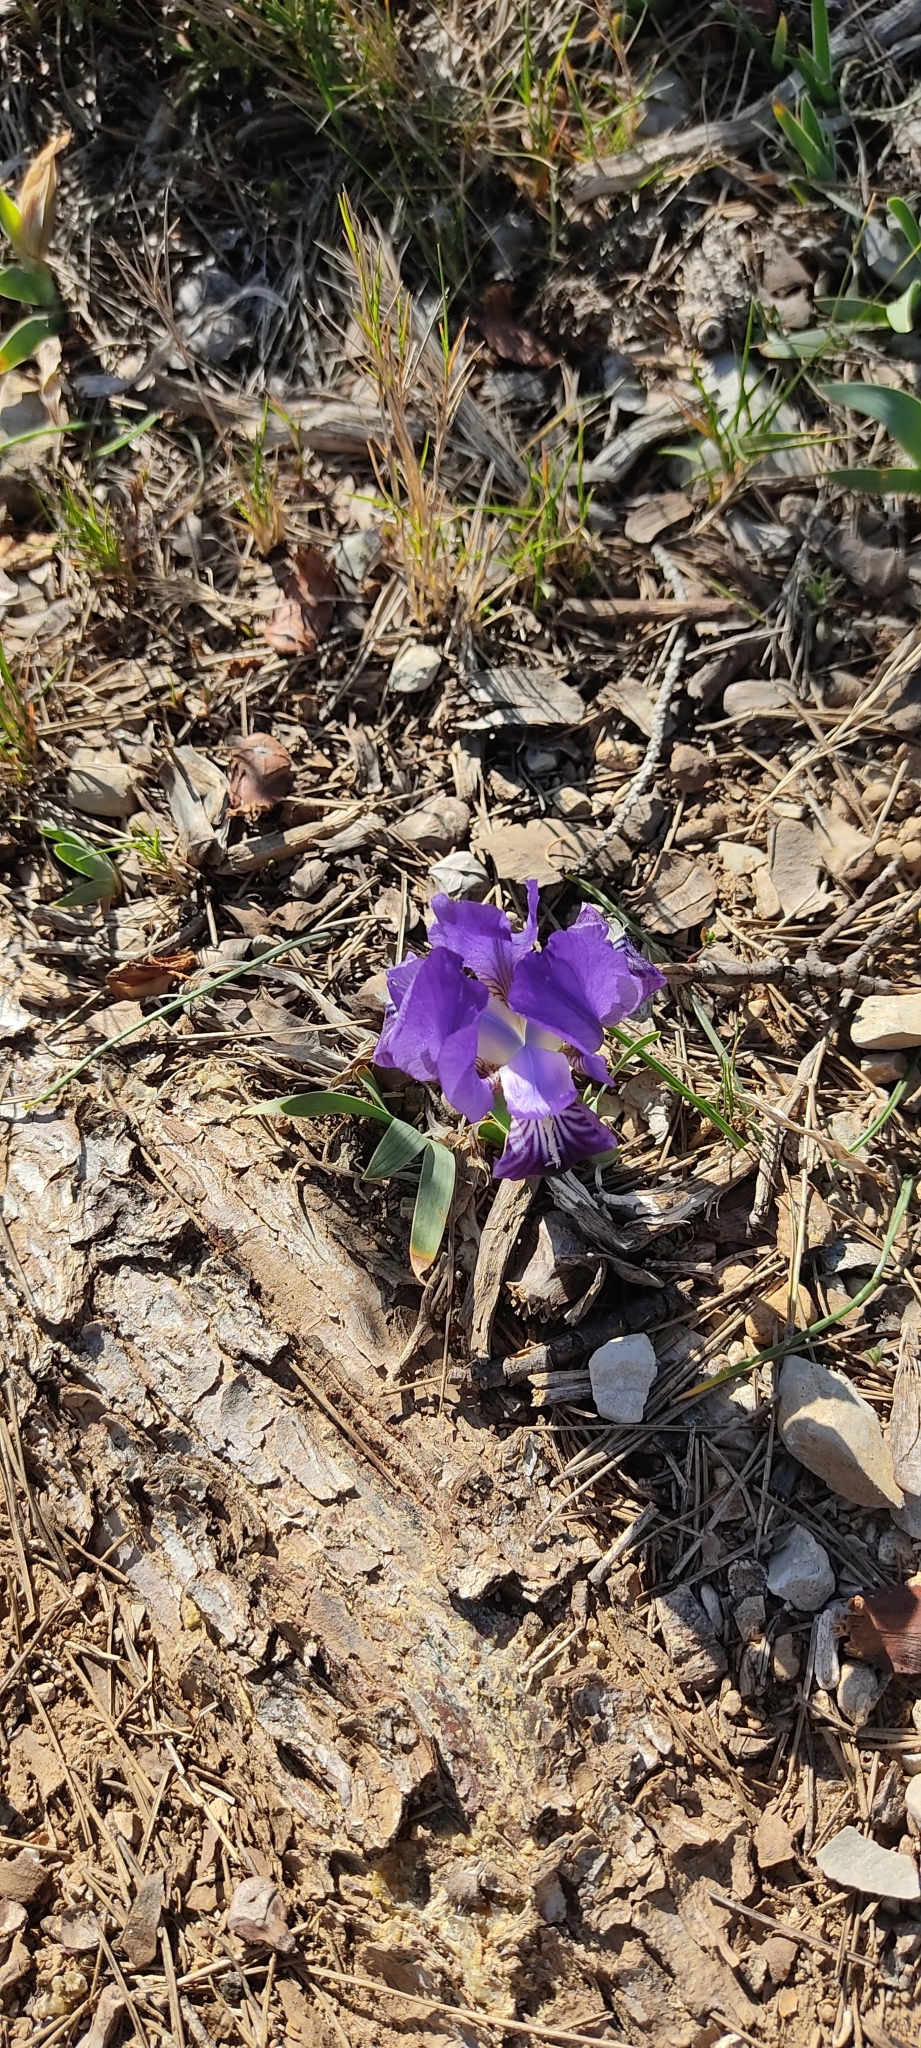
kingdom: Plantae
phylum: Tracheophyta
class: Liliopsida
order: Asparagales
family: Iridaceae
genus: Iris
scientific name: Iris lutescens
